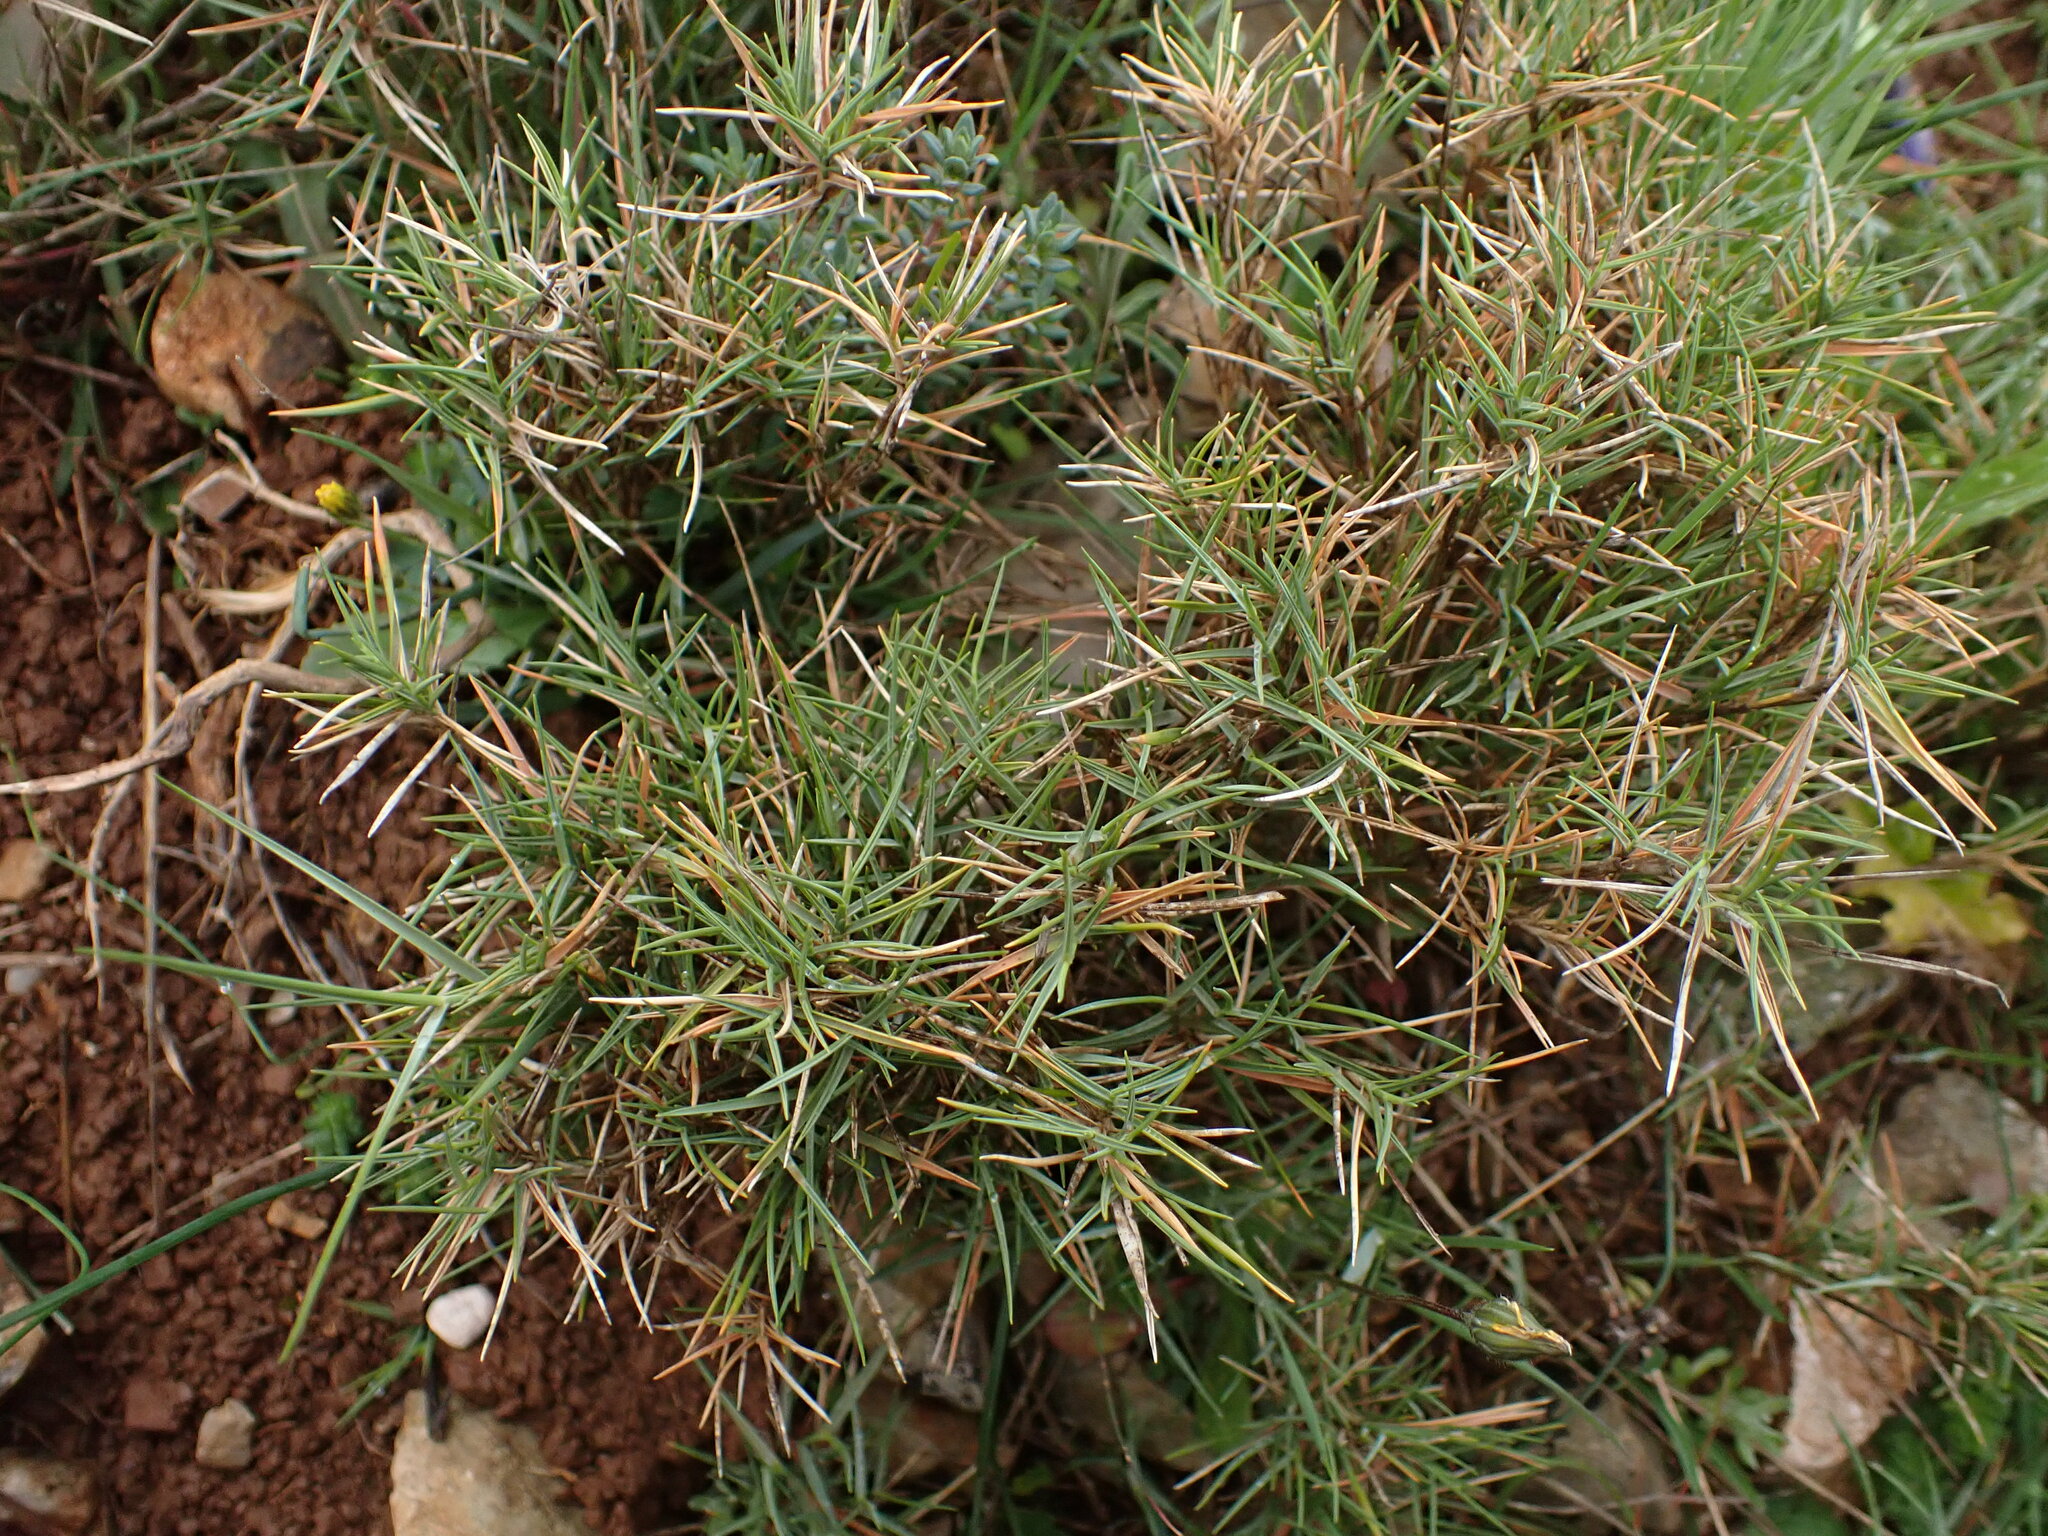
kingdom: Plantae
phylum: Tracheophyta
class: Liliopsida
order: Poales
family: Poaceae
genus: Brachypodium
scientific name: Brachypodium retusum
